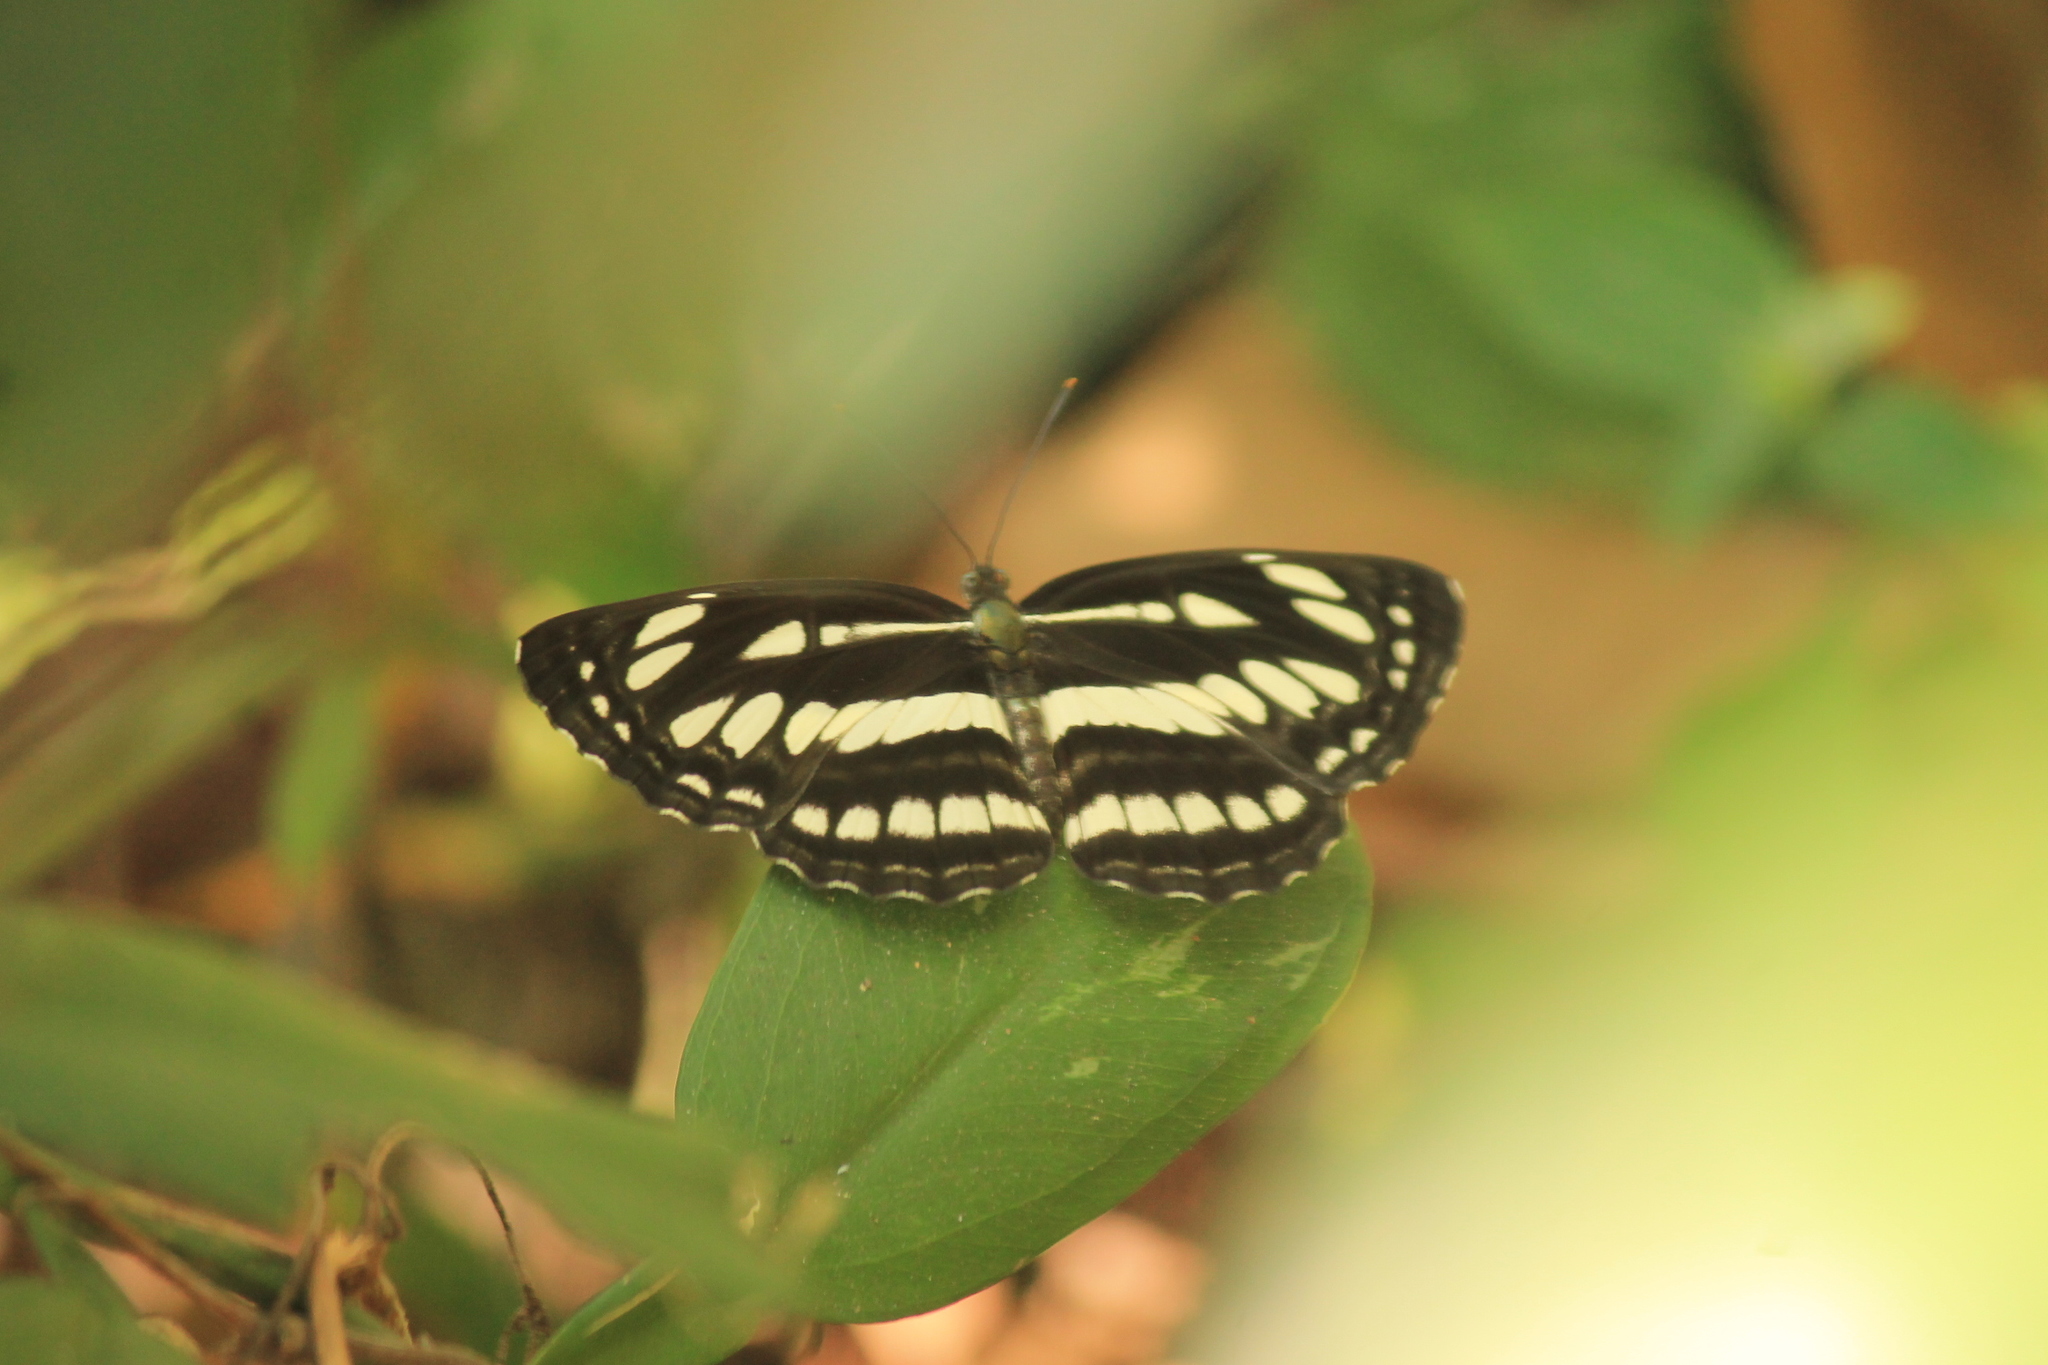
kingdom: Animalia
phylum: Arthropoda
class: Insecta
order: Lepidoptera
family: Nymphalidae
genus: Neptis
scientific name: Neptis hylas
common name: Common sailer
